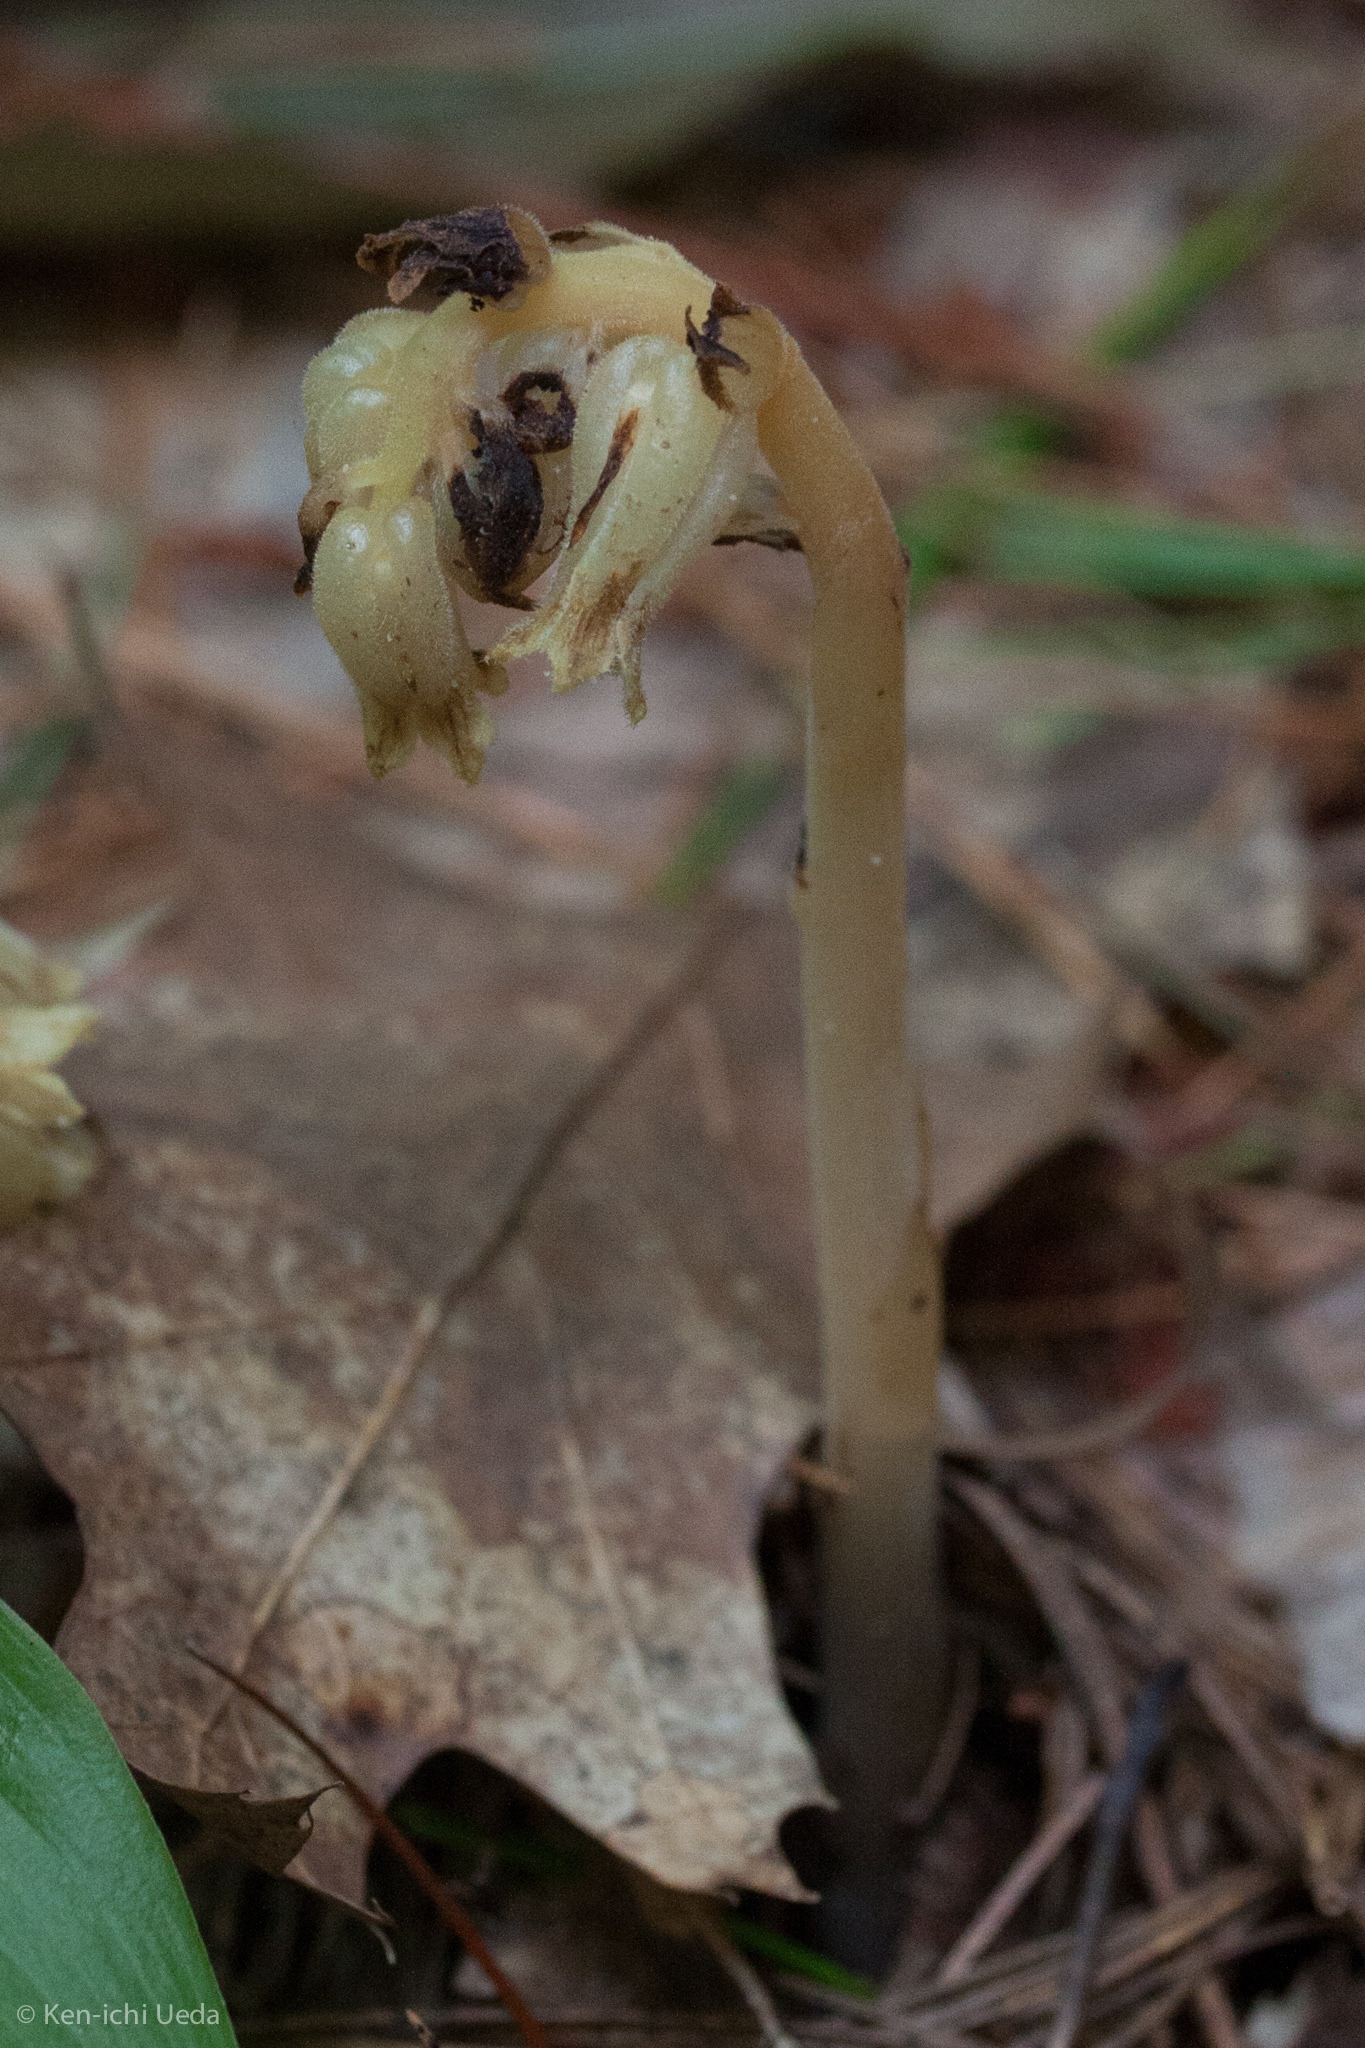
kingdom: Plantae
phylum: Tracheophyta
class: Magnoliopsida
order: Ericales
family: Ericaceae
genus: Hypopitys
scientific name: Hypopitys monotropa
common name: Yellow bird's-nest
